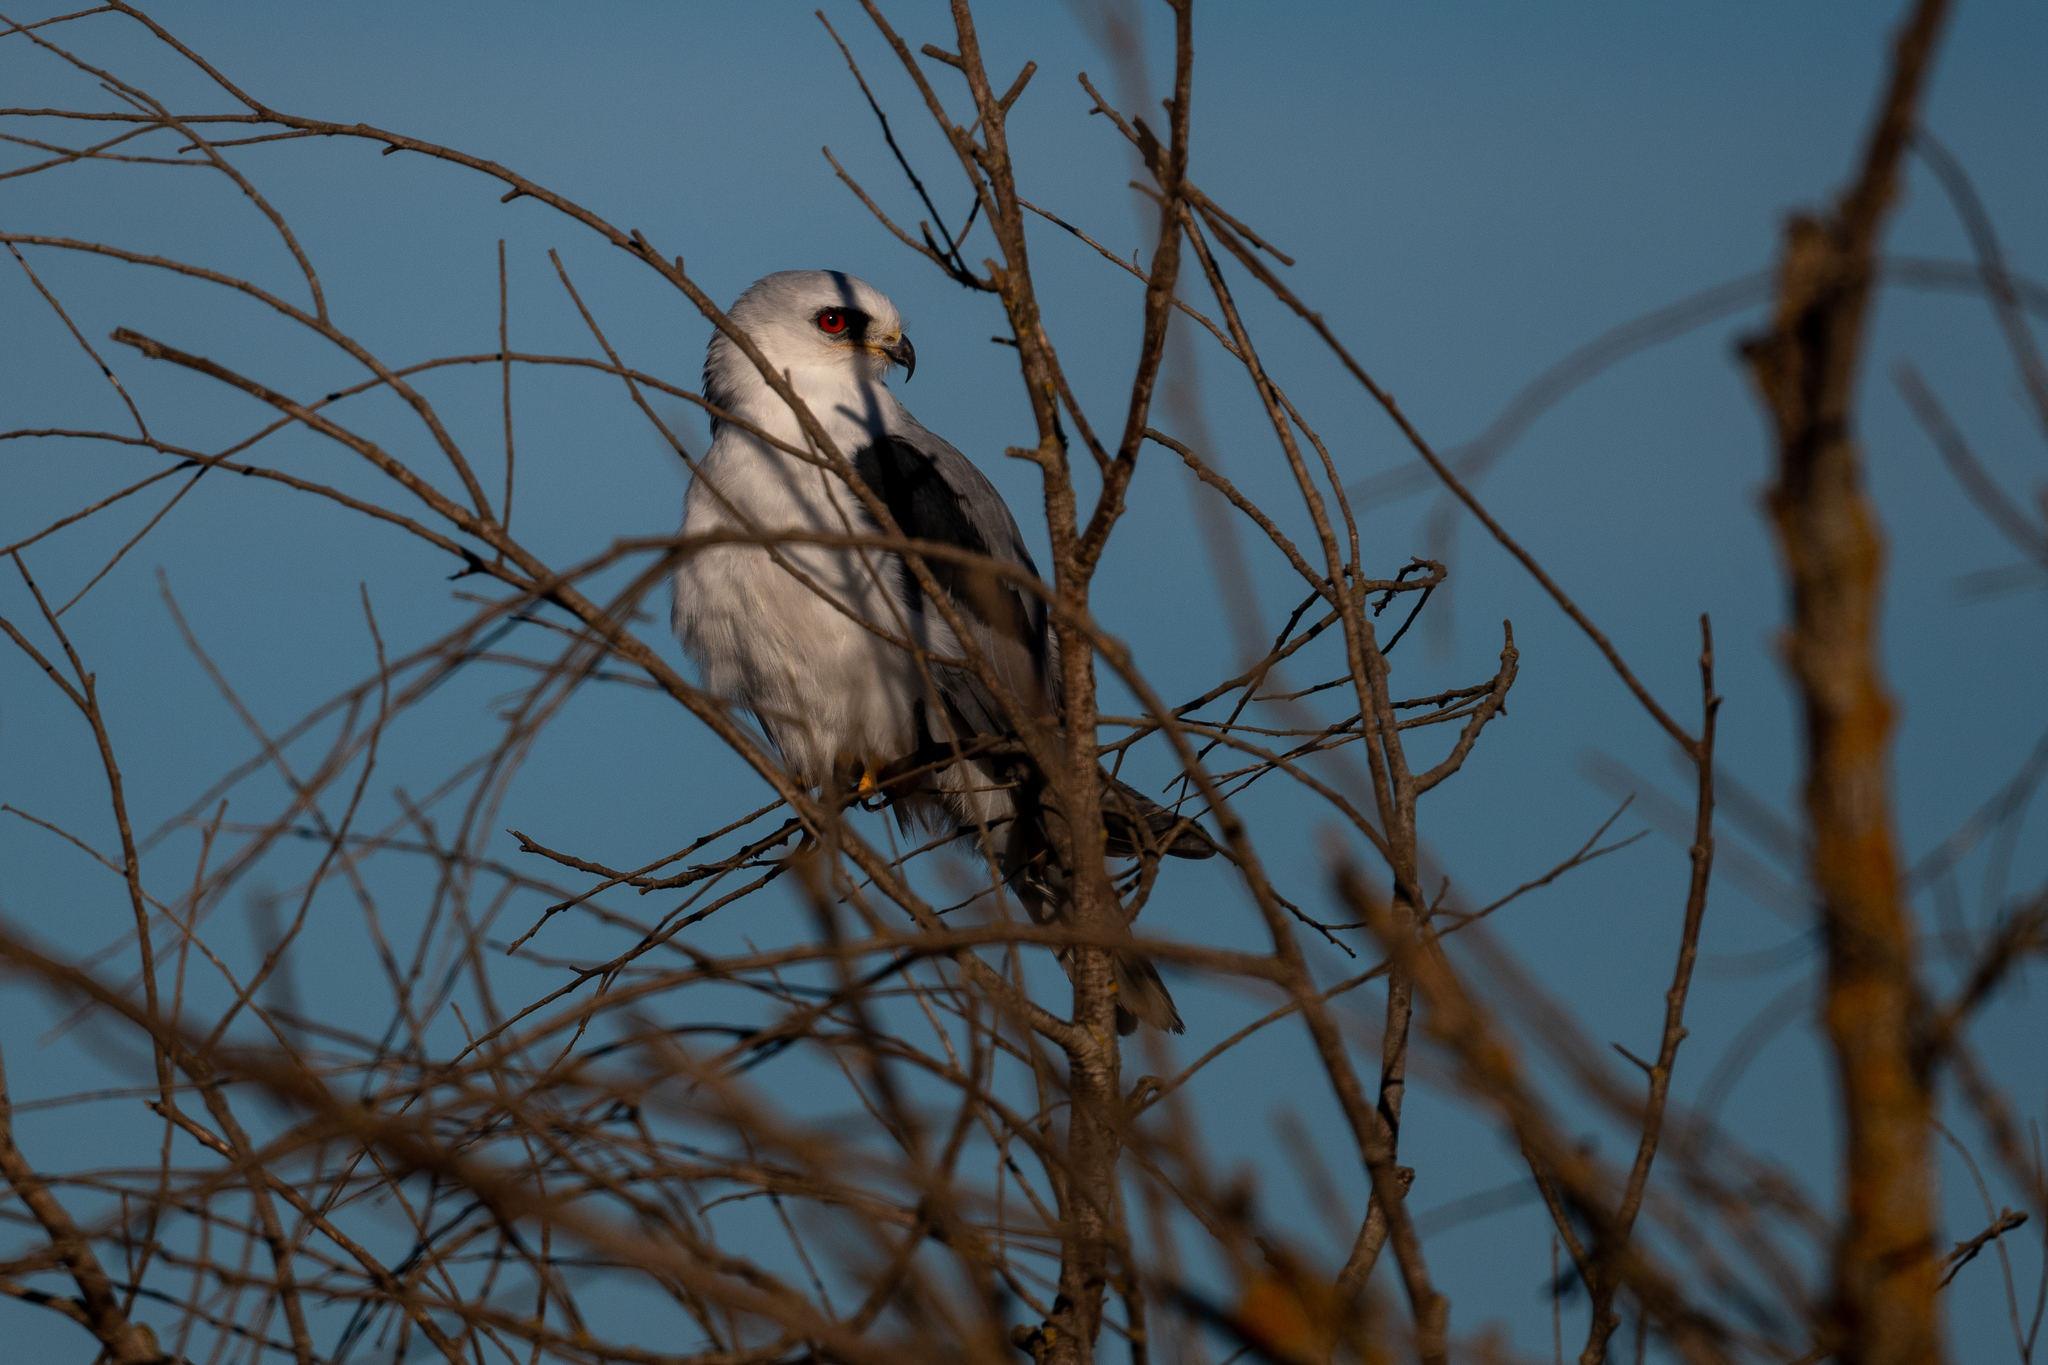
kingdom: Animalia
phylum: Chordata
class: Aves
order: Accipitriformes
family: Accipitridae
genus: Elanus
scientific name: Elanus leucurus
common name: White-tailed kite
